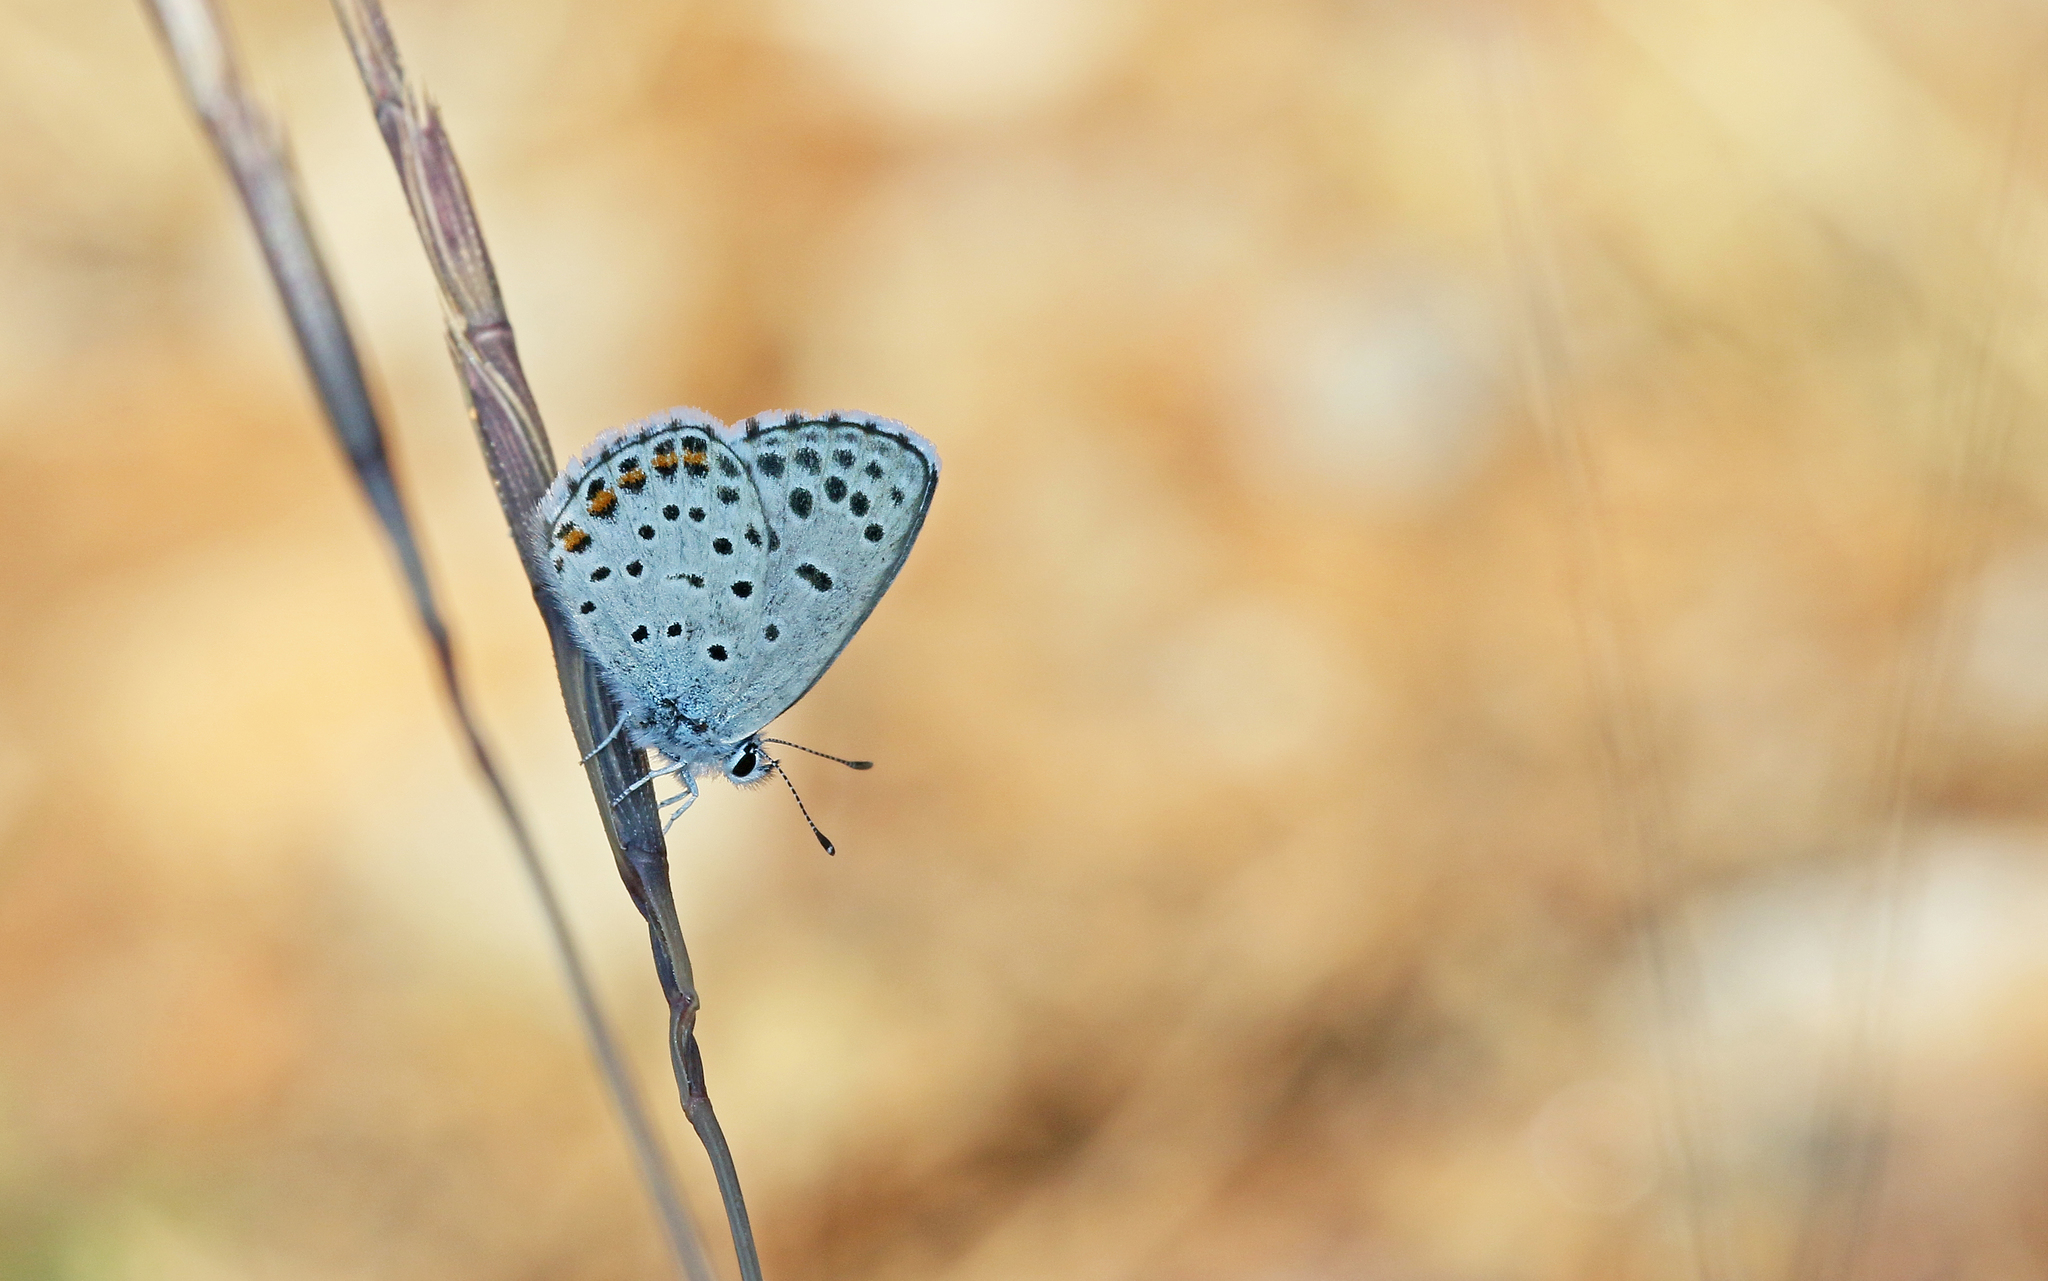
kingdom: Animalia
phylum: Arthropoda
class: Insecta
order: Lepidoptera
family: Lycaenidae
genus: Pseudophilotes
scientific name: Pseudophilotes baton
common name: Baton blue
